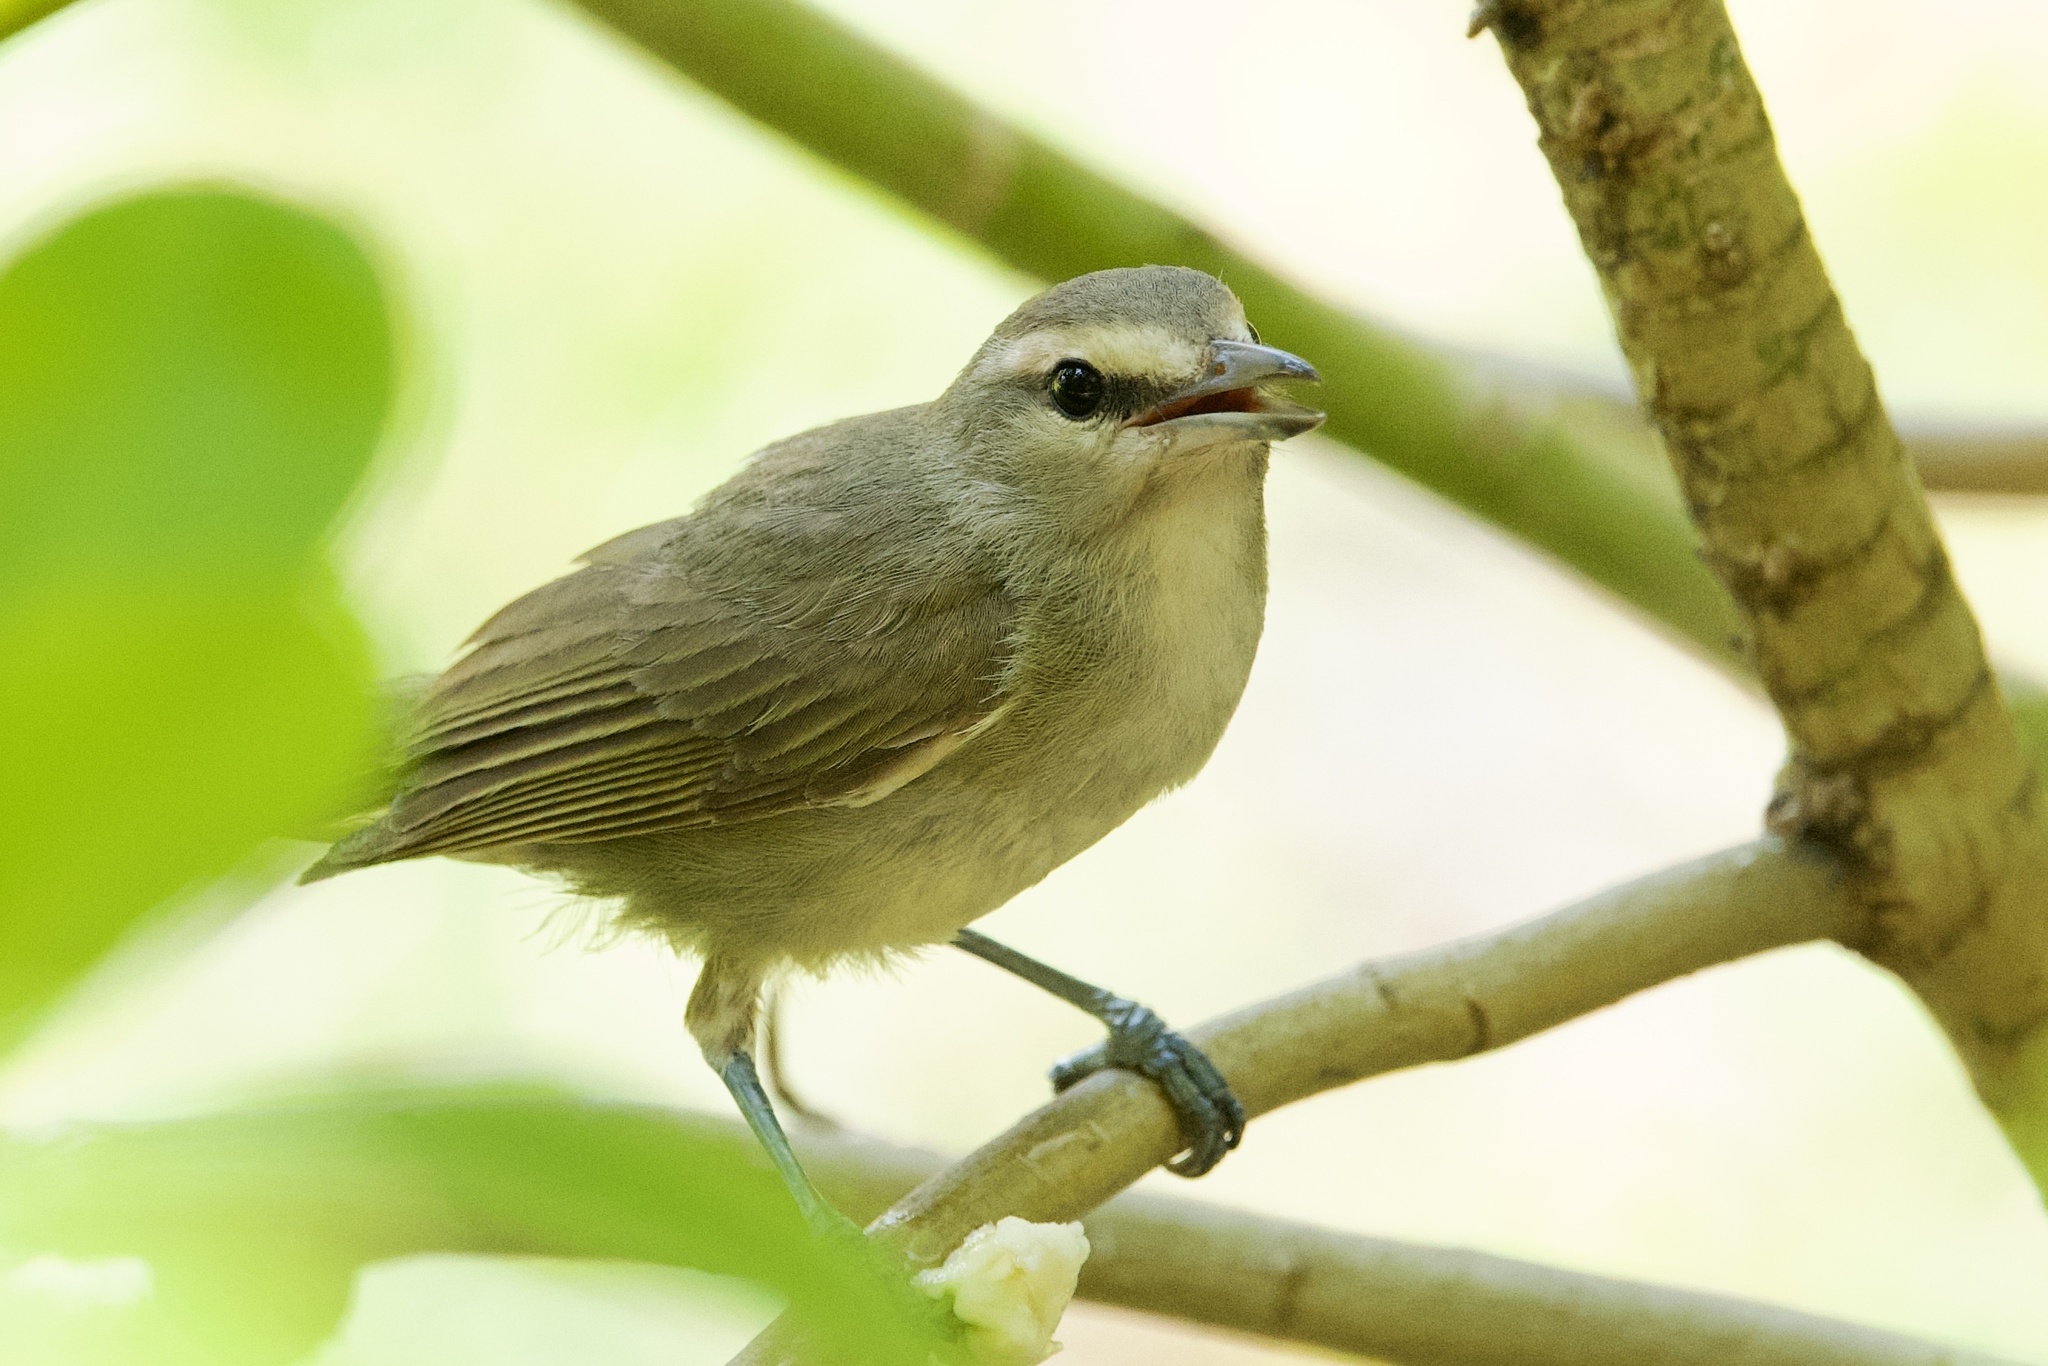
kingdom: Animalia
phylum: Chordata
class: Aves
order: Passeriformes
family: Vireonidae
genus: Vireo
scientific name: Vireo magister
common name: Yucatan vireo
